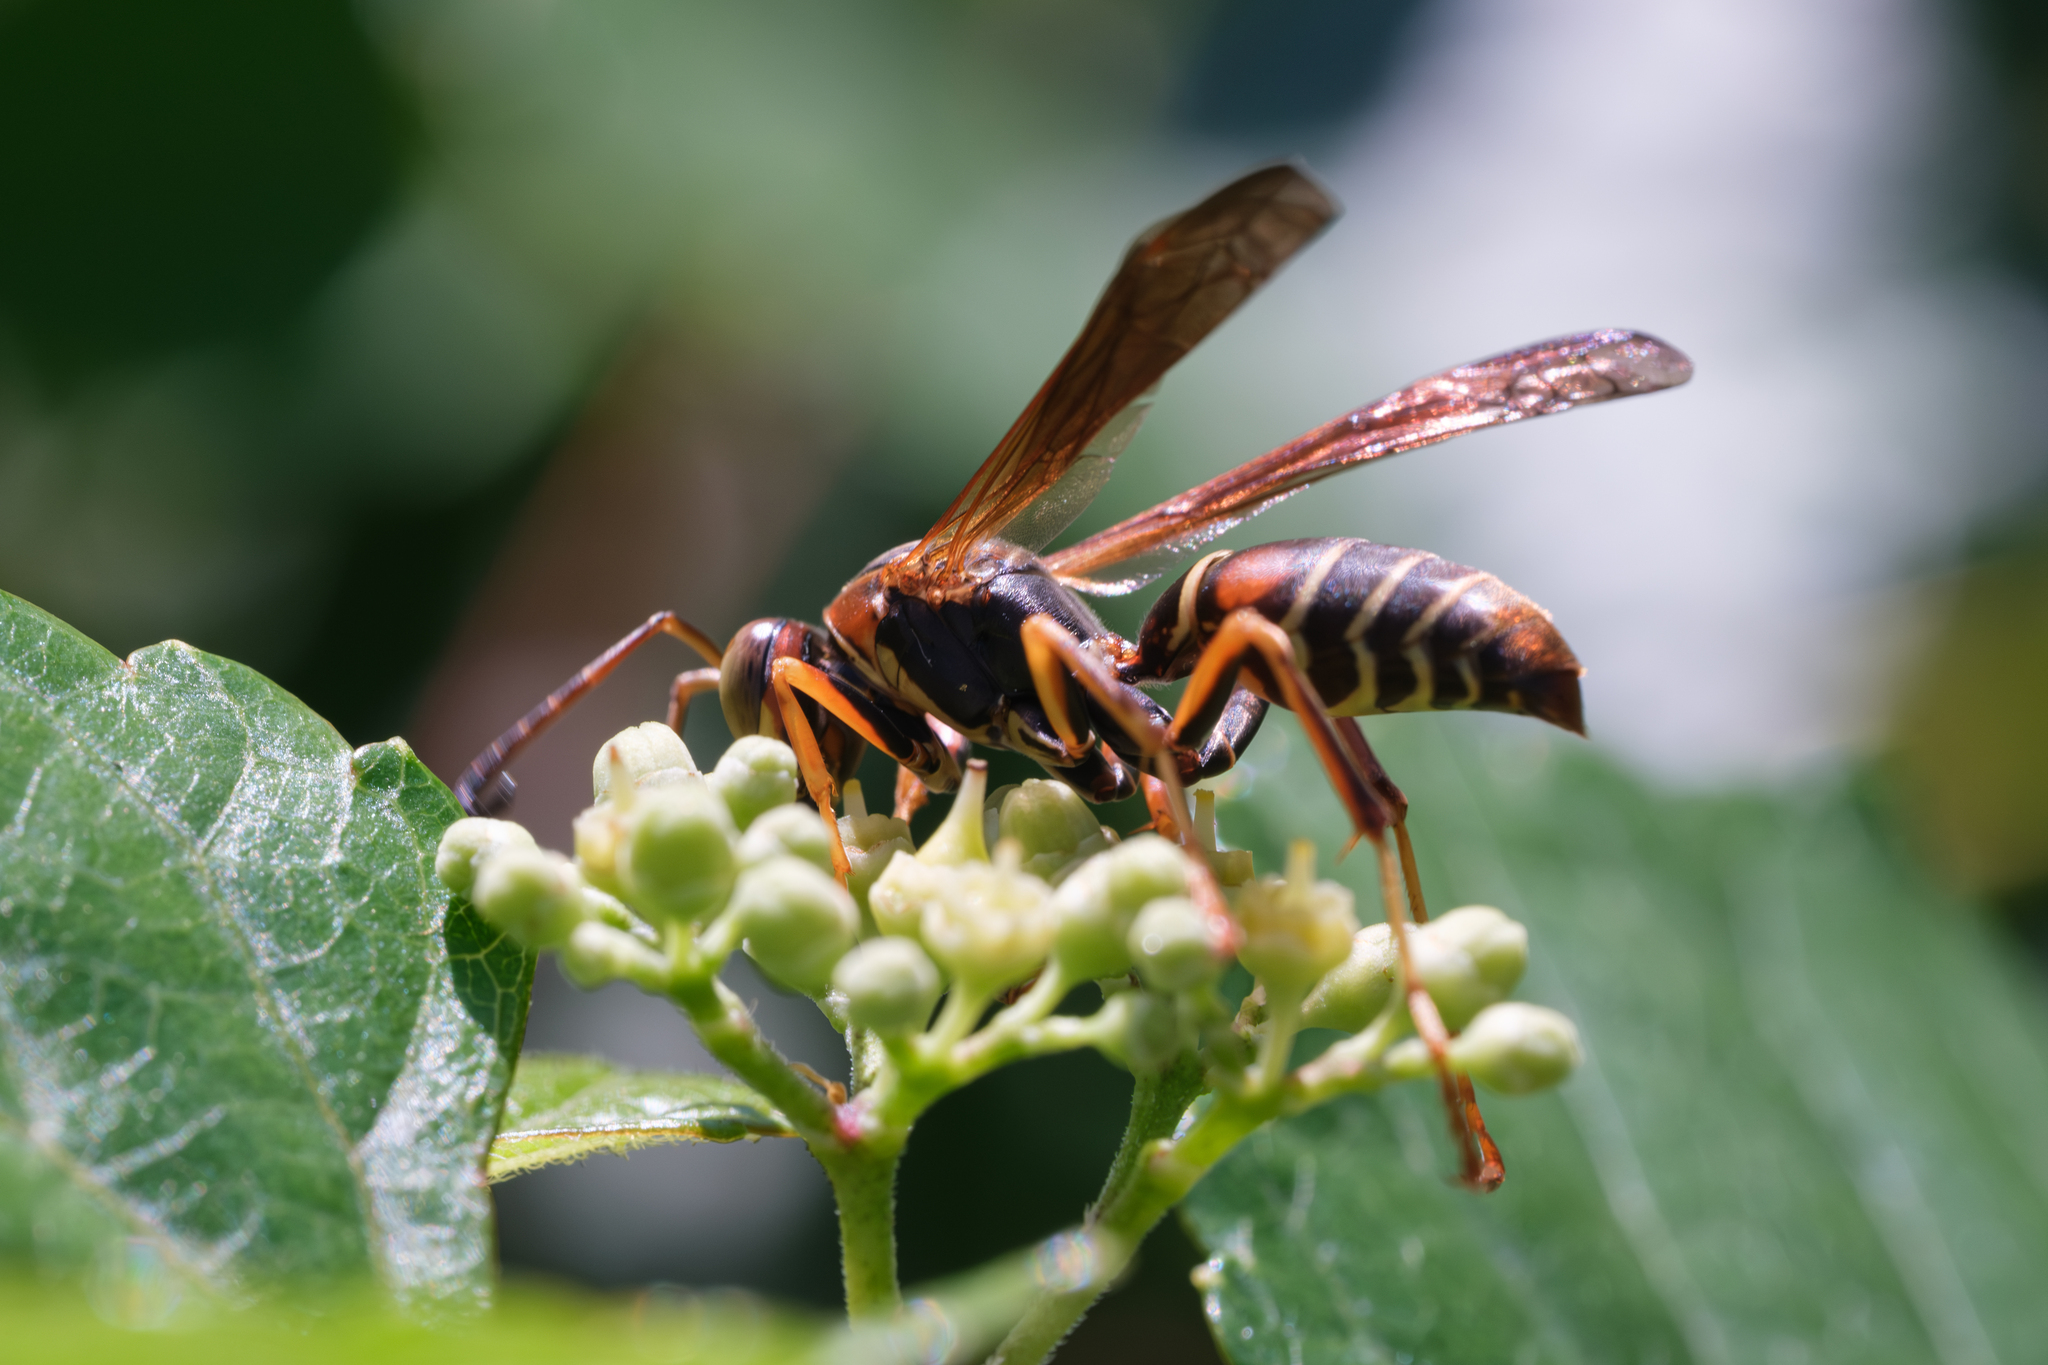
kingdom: Animalia
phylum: Arthropoda
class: Insecta
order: Hymenoptera
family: Eumenidae
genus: Polistes
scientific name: Polistes fuscatus
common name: Dark paper wasp
